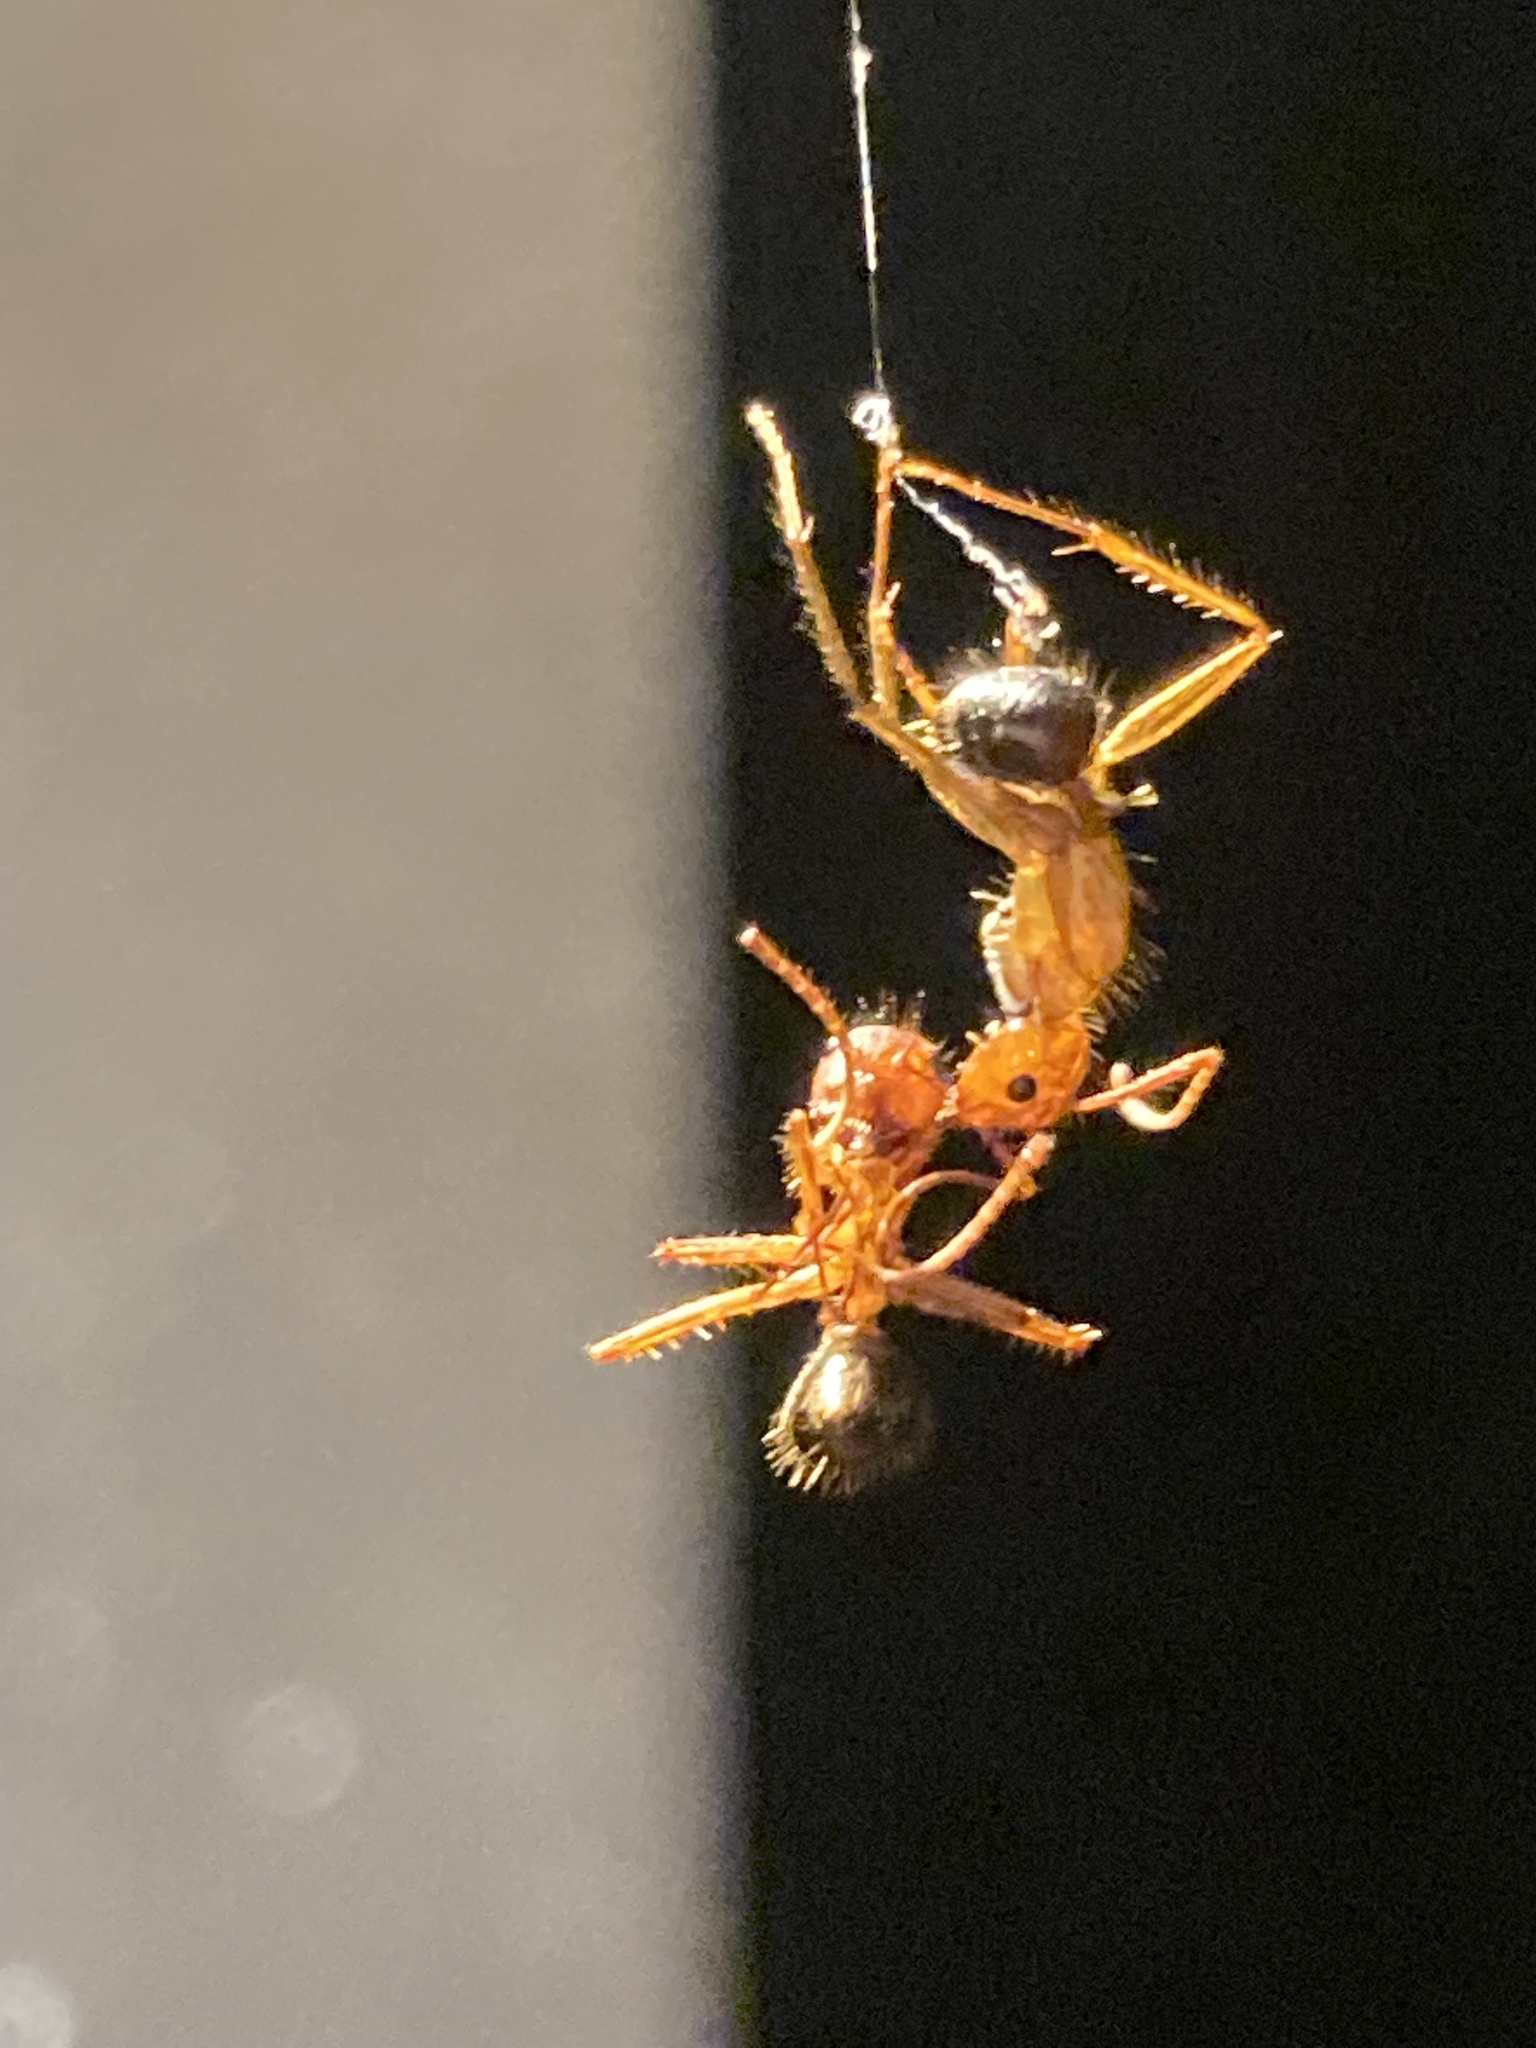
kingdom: Animalia
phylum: Arthropoda
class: Insecta
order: Hymenoptera
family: Formicidae
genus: Camponotus
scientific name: Camponotus floridanus
